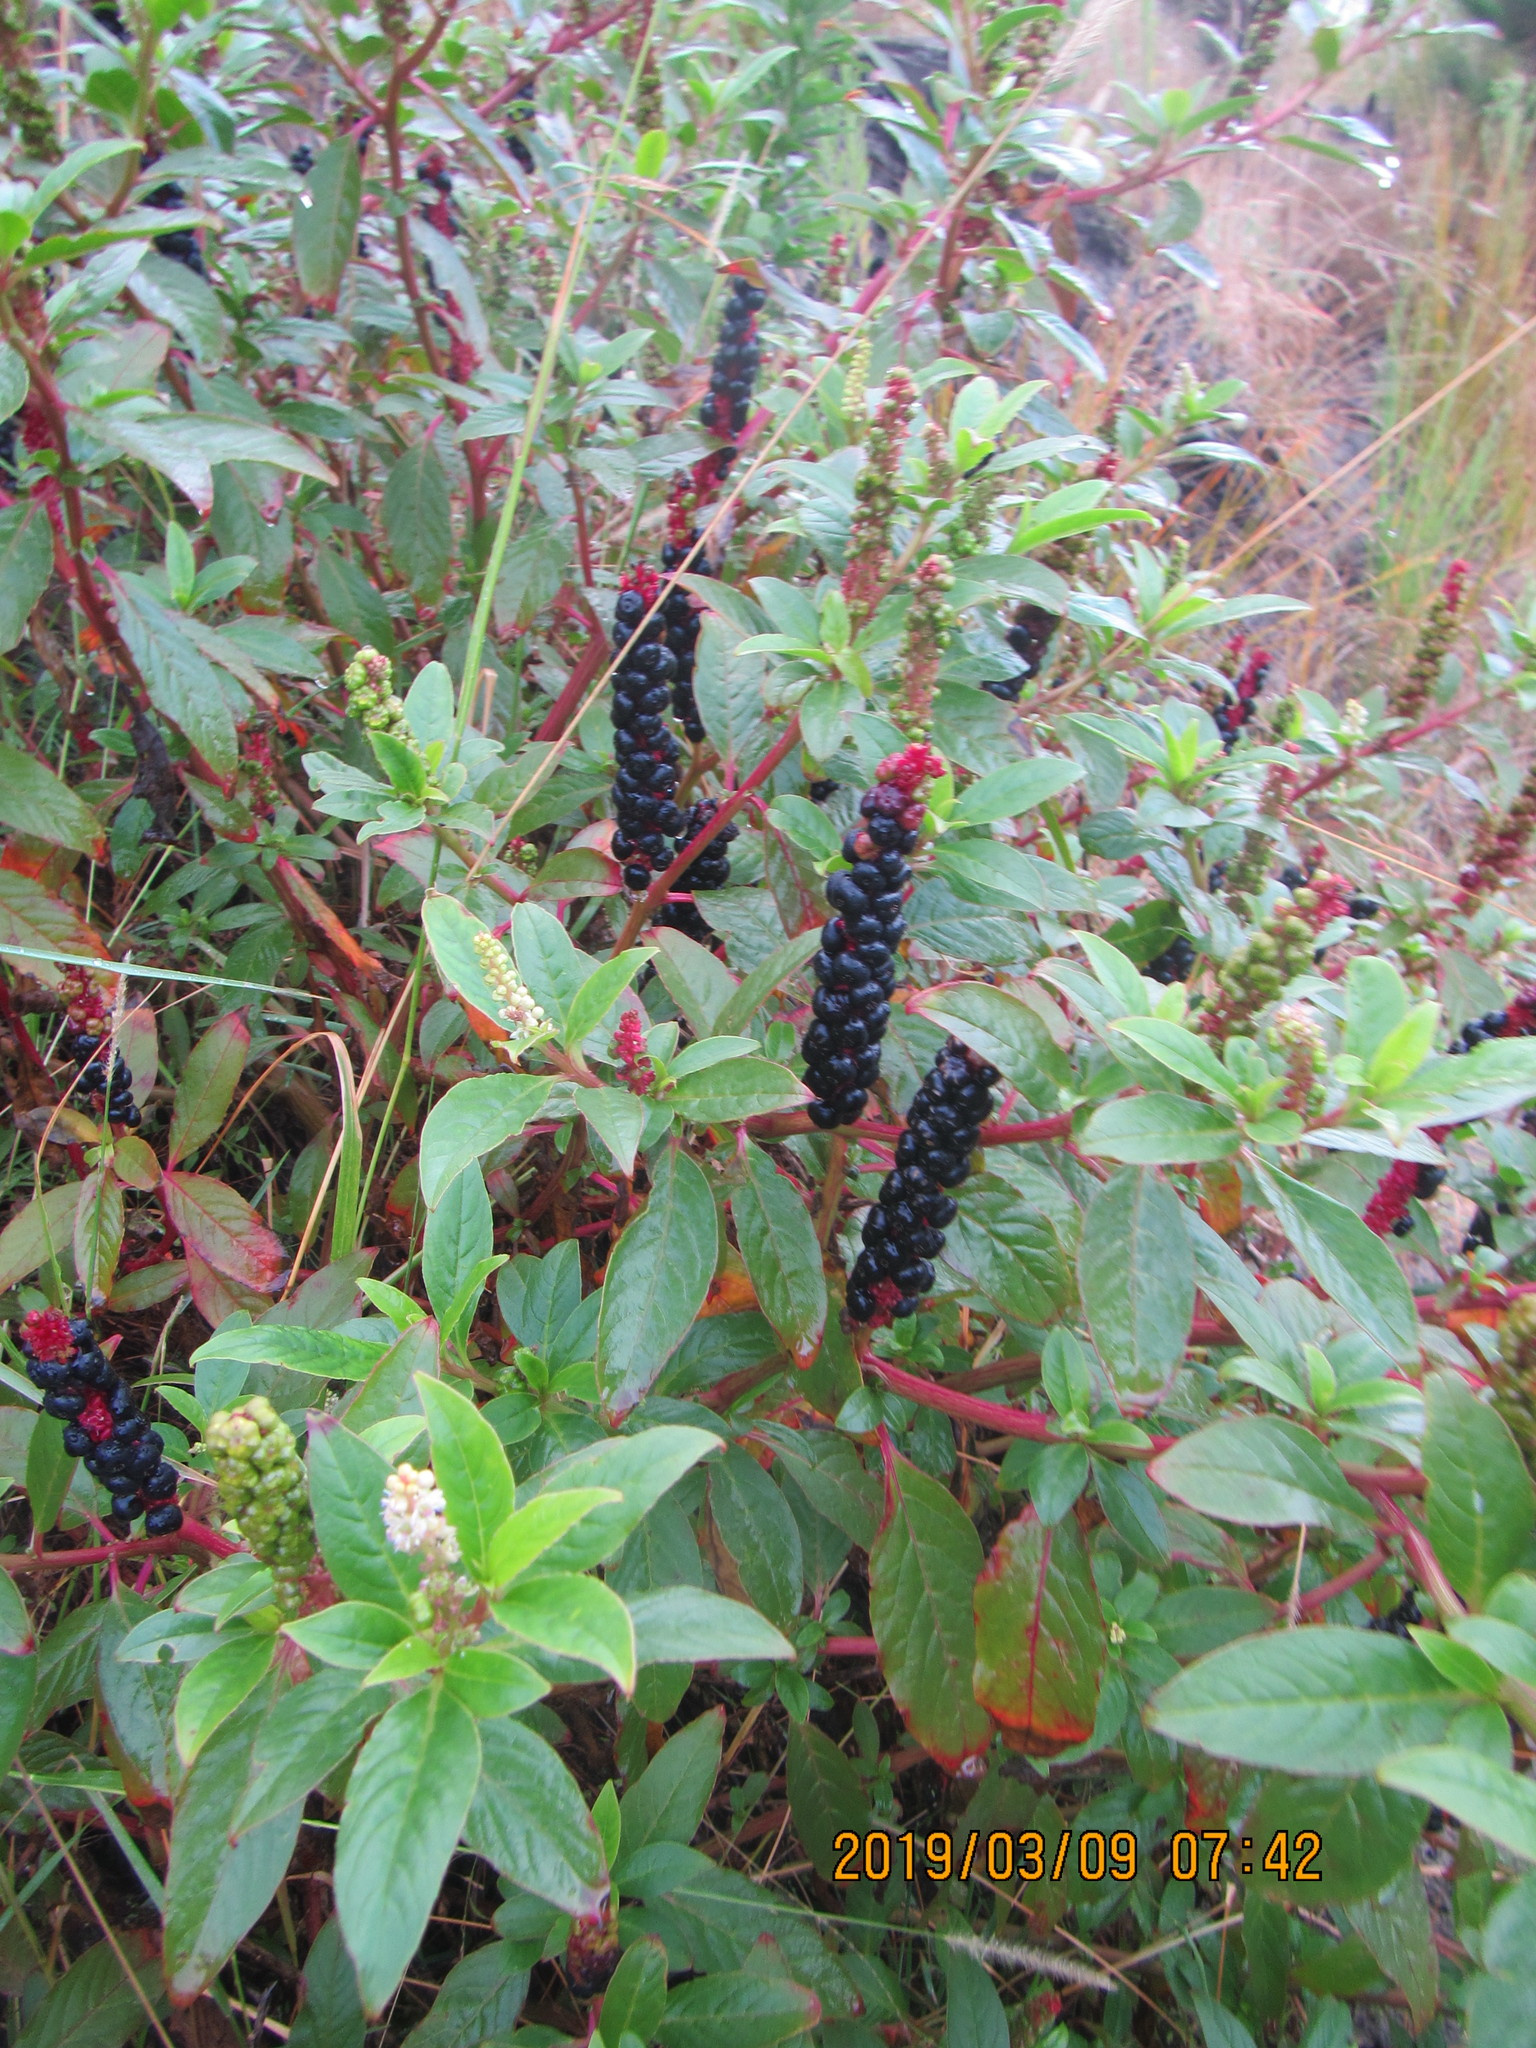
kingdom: Plantae
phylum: Tracheophyta
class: Magnoliopsida
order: Caryophyllales
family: Phytolaccaceae
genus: Phytolacca
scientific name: Phytolacca icosandra
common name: Button pokeweed
